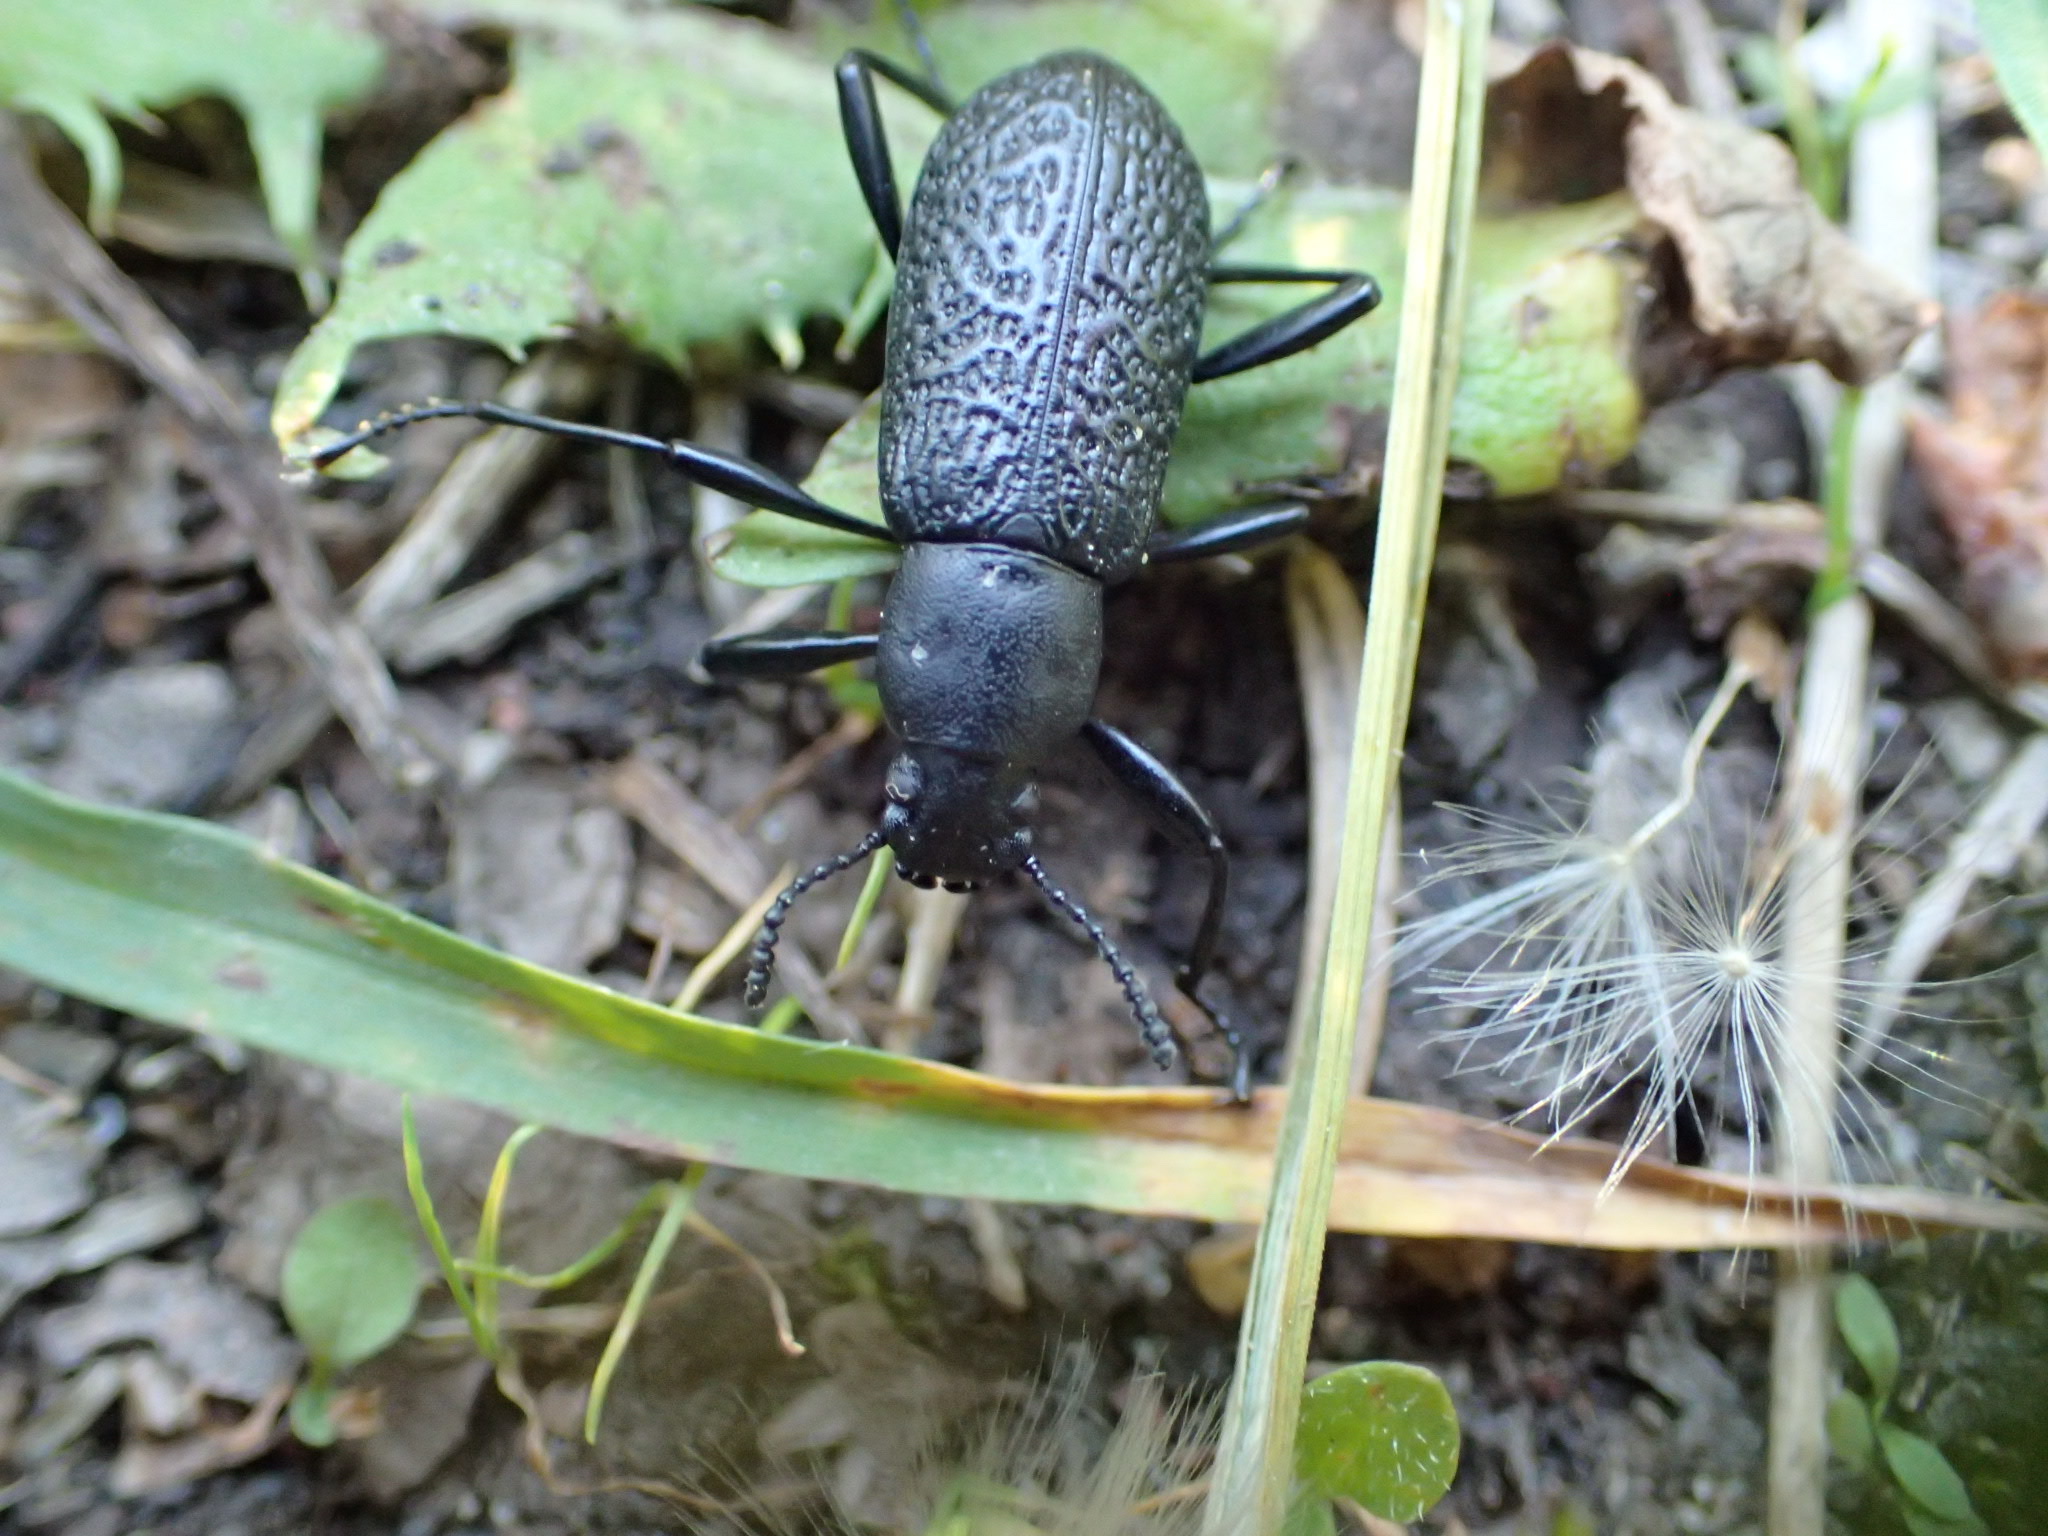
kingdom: Animalia
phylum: Arthropoda
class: Insecta
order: Coleoptera
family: Tenebrionidae
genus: Upis
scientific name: Upis ceramboides
